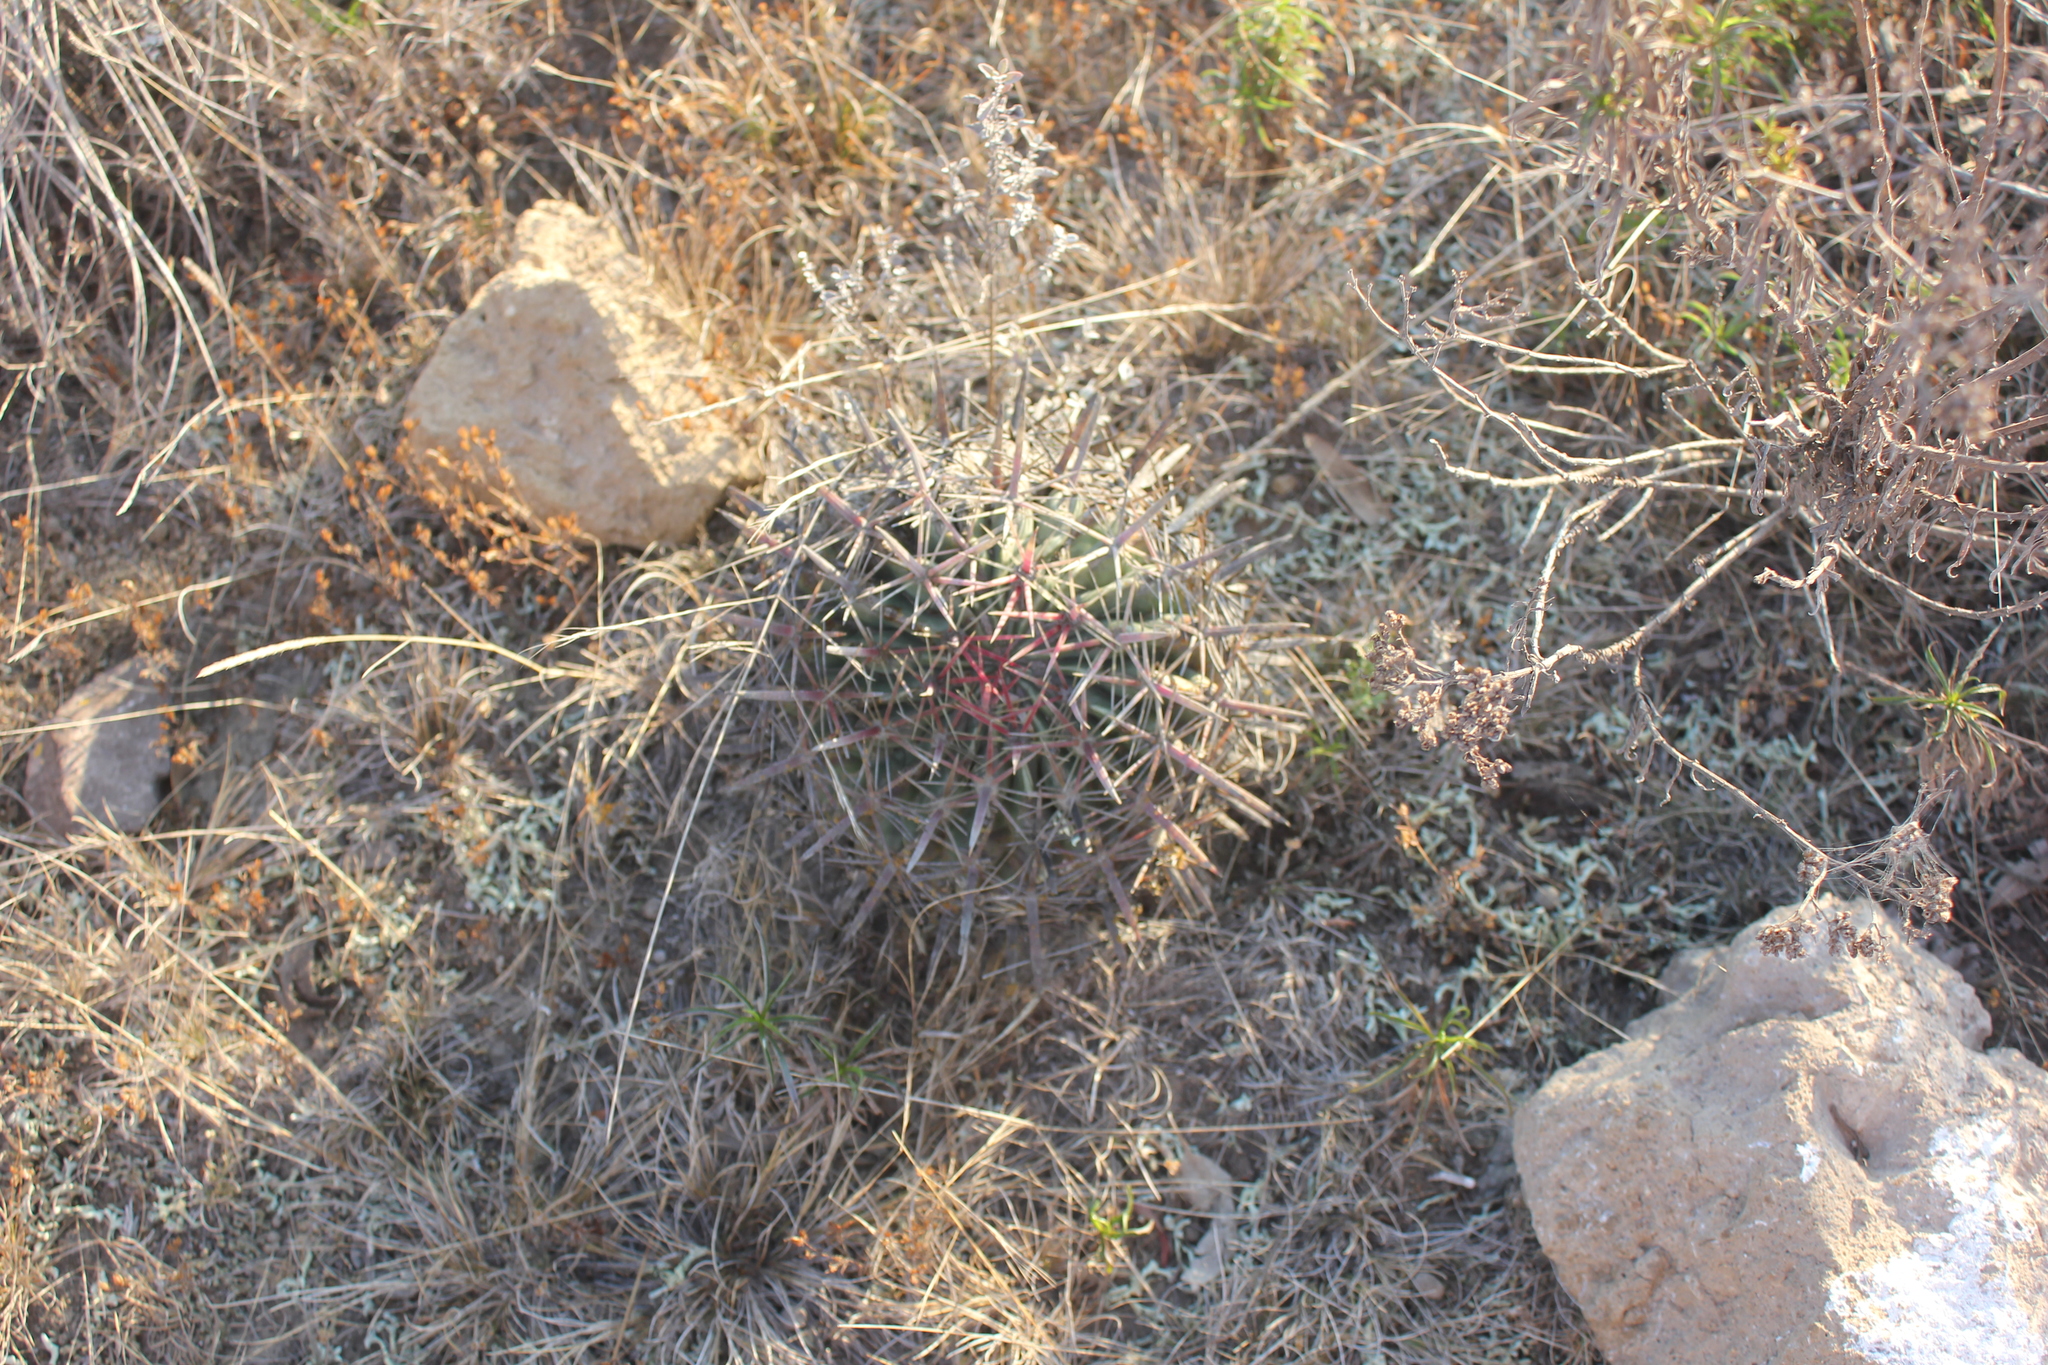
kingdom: Plantae
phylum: Tracheophyta
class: Magnoliopsida
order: Caryophyllales
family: Cactaceae
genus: Ferocactus
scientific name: Ferocactus latispinus
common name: Devil's-tongue cactus
